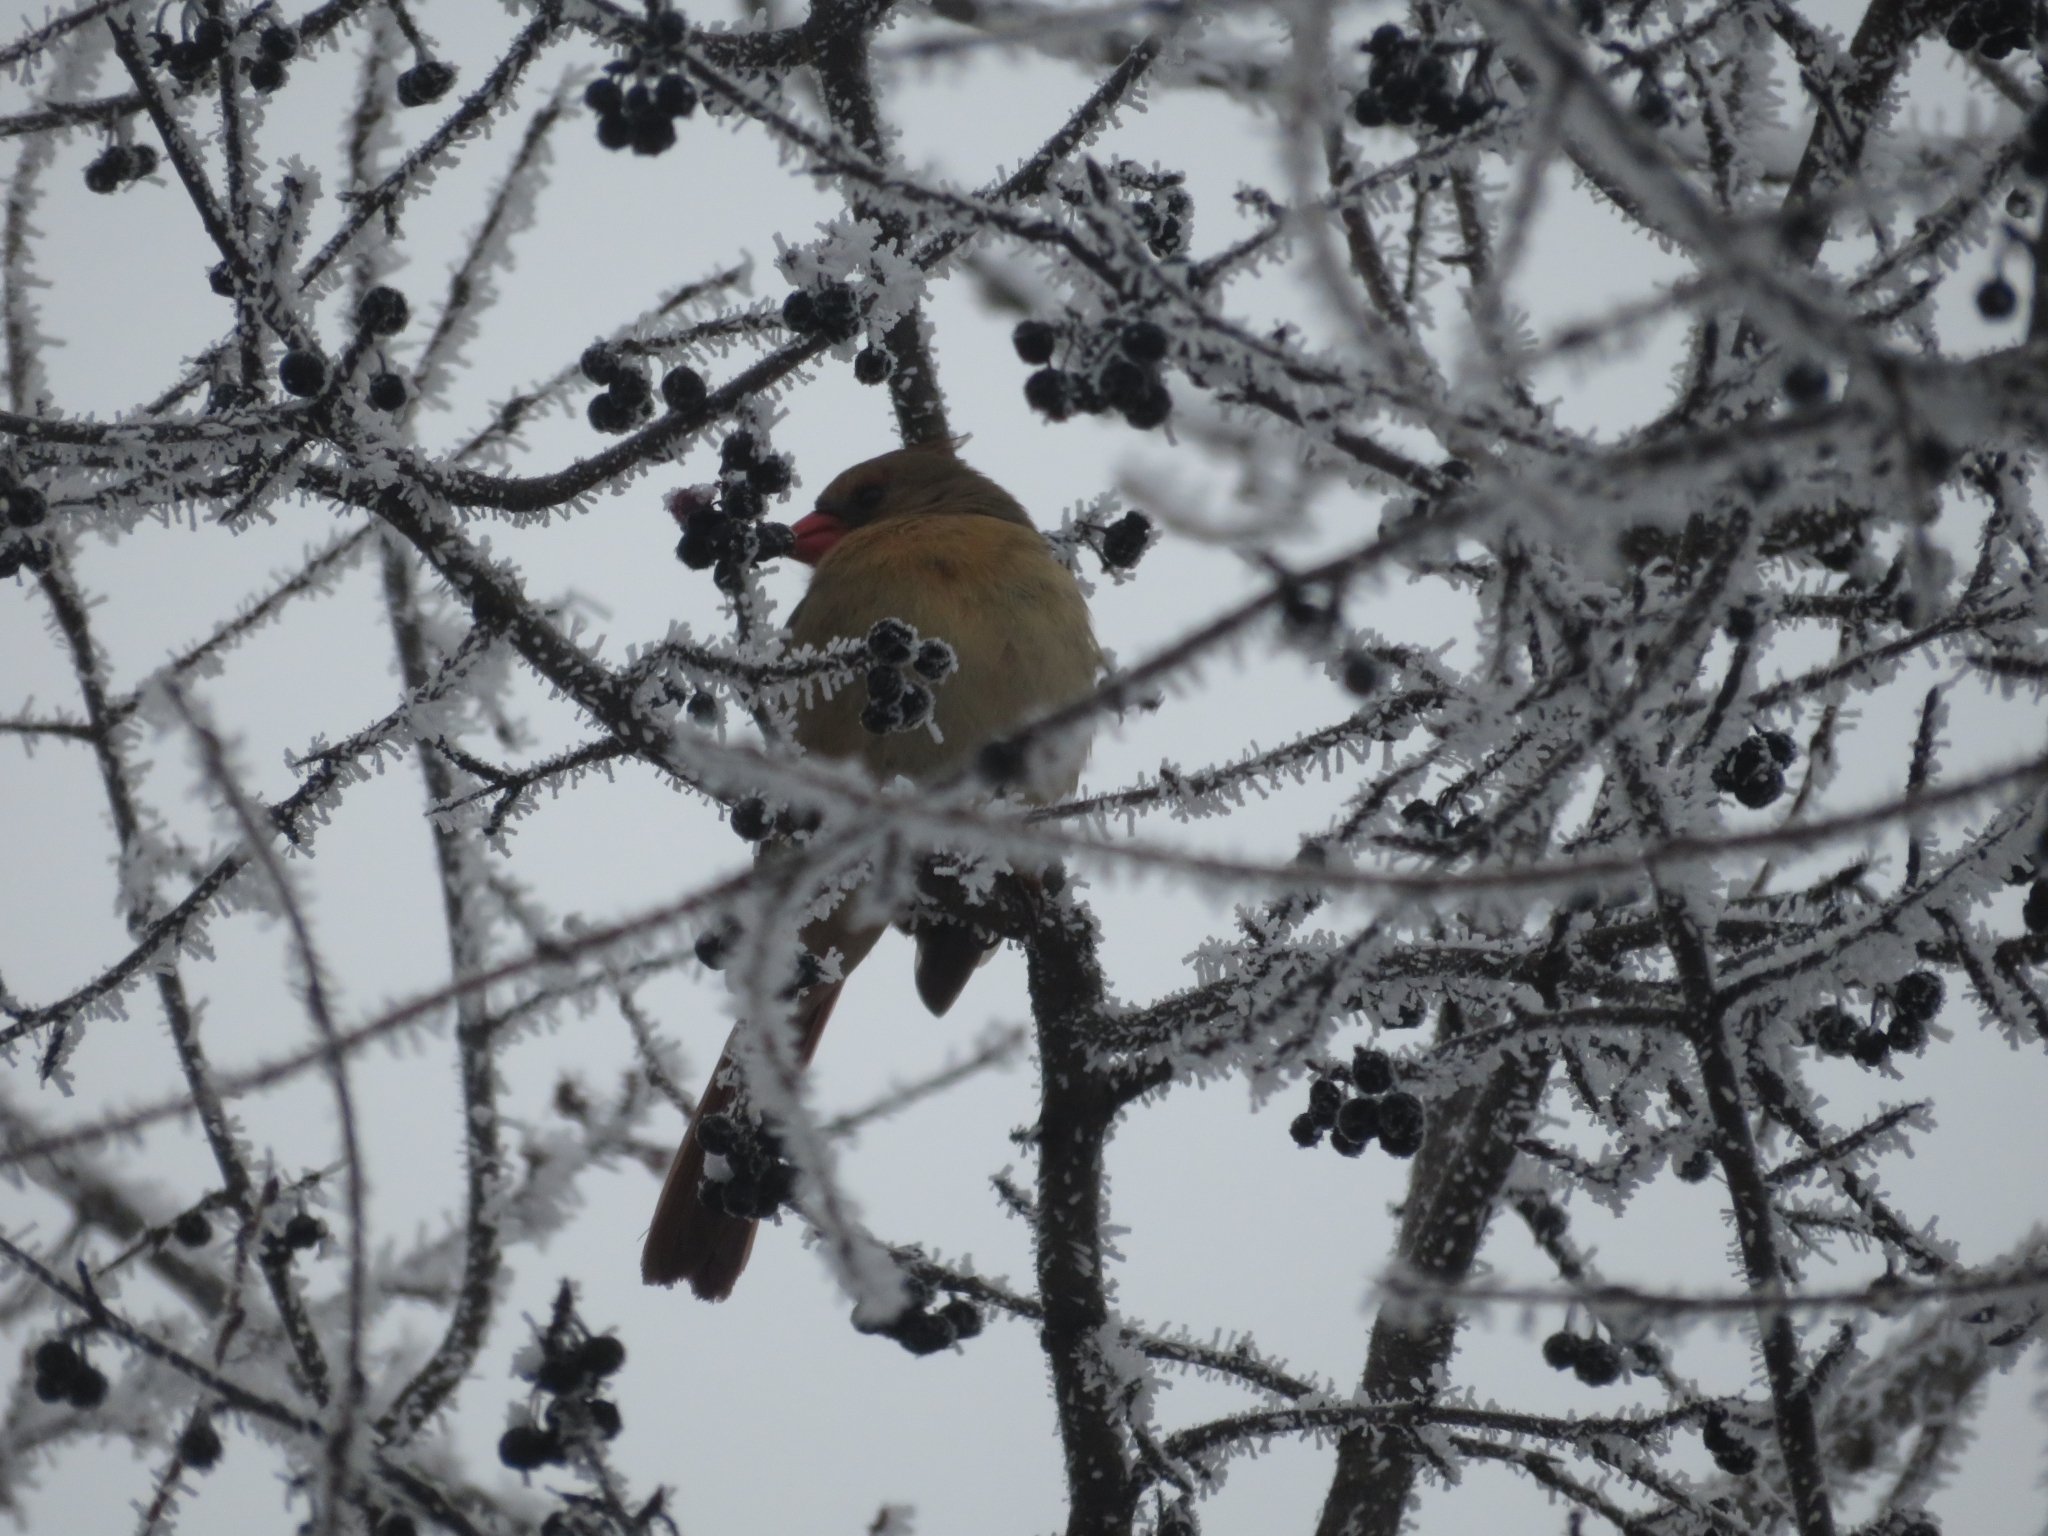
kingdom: Animalia
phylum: Chordata
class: Aves
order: Passeriformes
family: Cardinalidae
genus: Cardinalis
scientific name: Cardinalis cardinalis
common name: Northern cardinal
